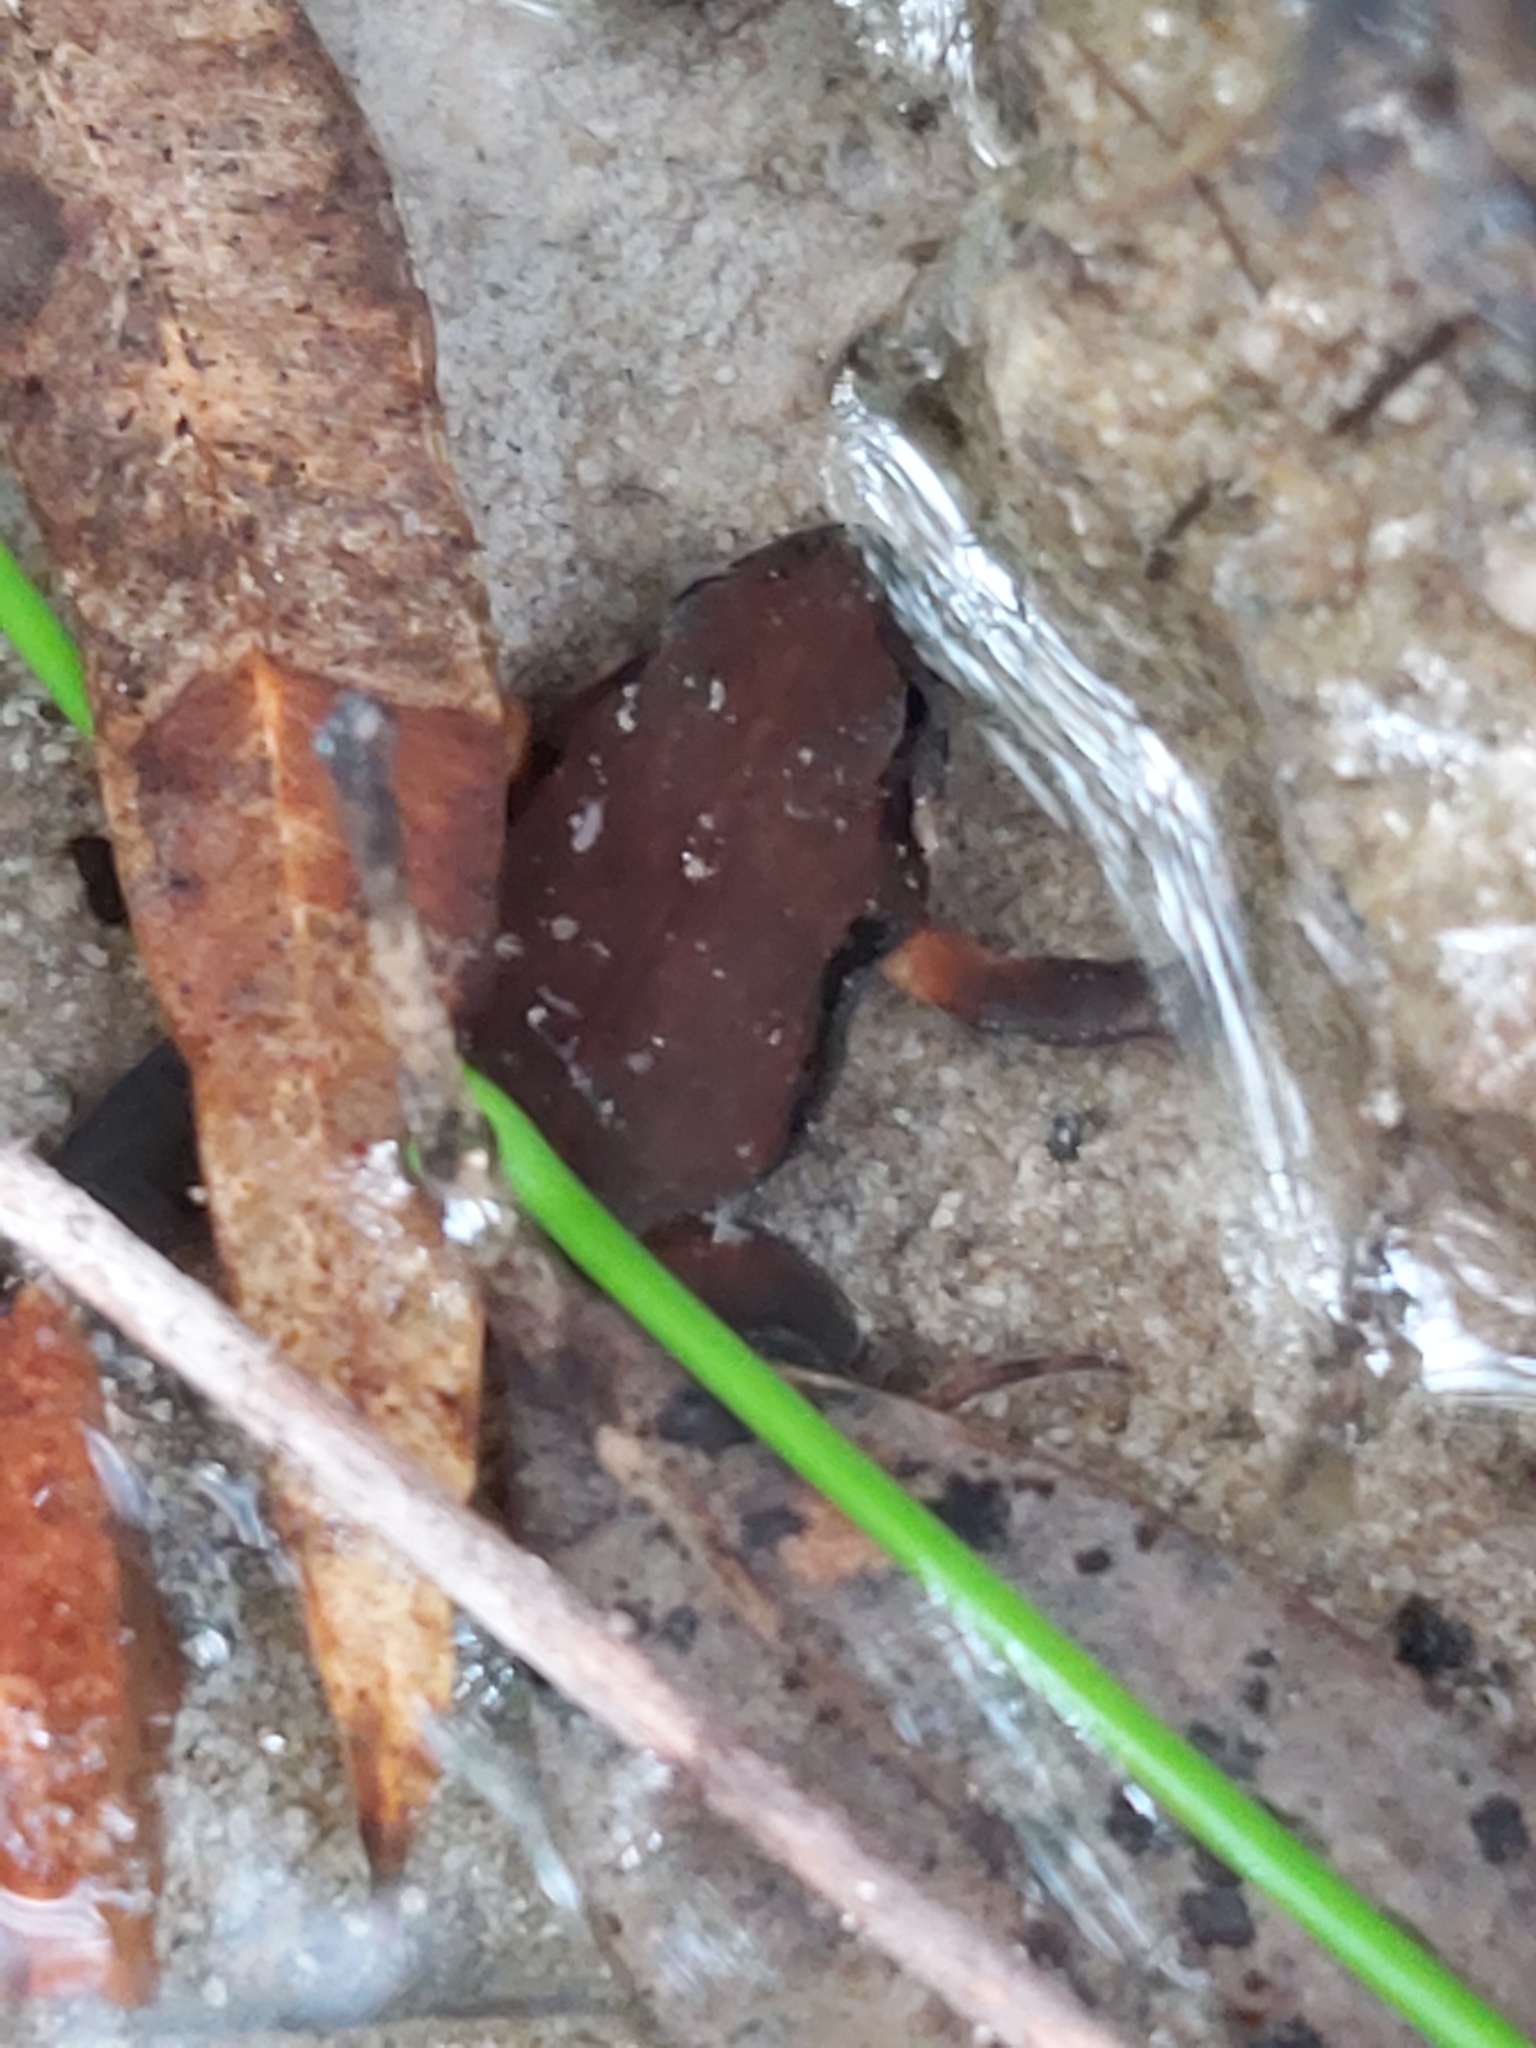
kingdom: Animalia
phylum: Chordata
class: Amphibia
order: Anura
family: Myobatrachidae
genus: Crinia
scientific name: Crinia signifera
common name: Brown froglet
